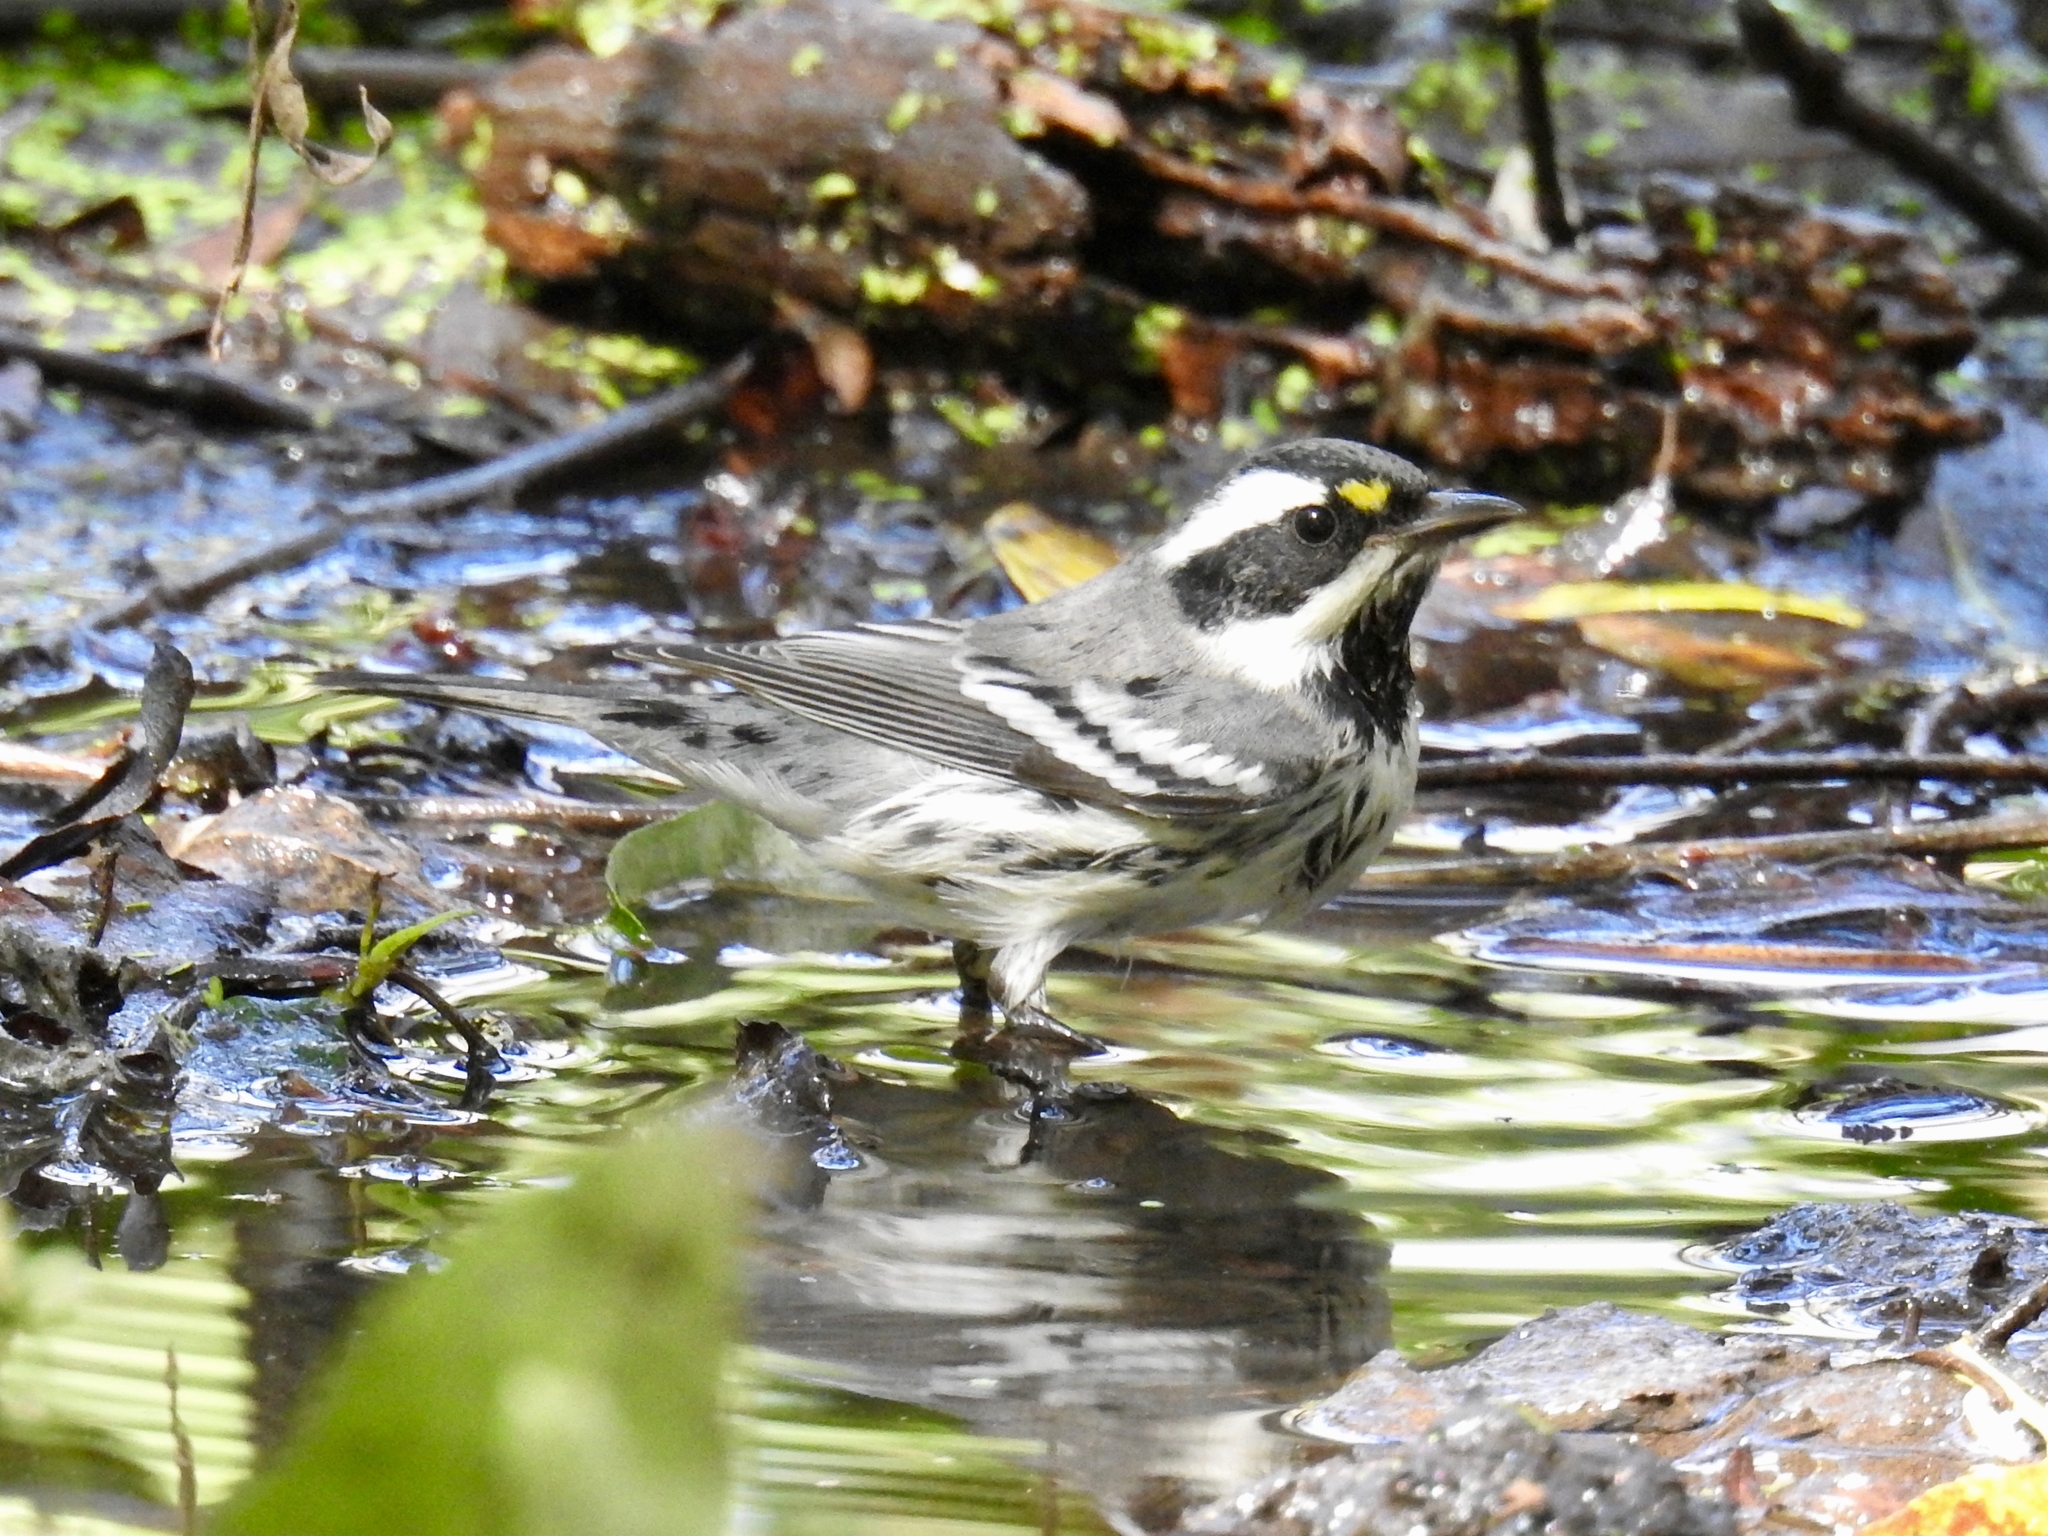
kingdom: Animalia
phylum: Chordata
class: Aves
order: Passeriformes
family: Parulidae
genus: Setophaga
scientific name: Setophaga nigrescens
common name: Black-throated gray warbler
